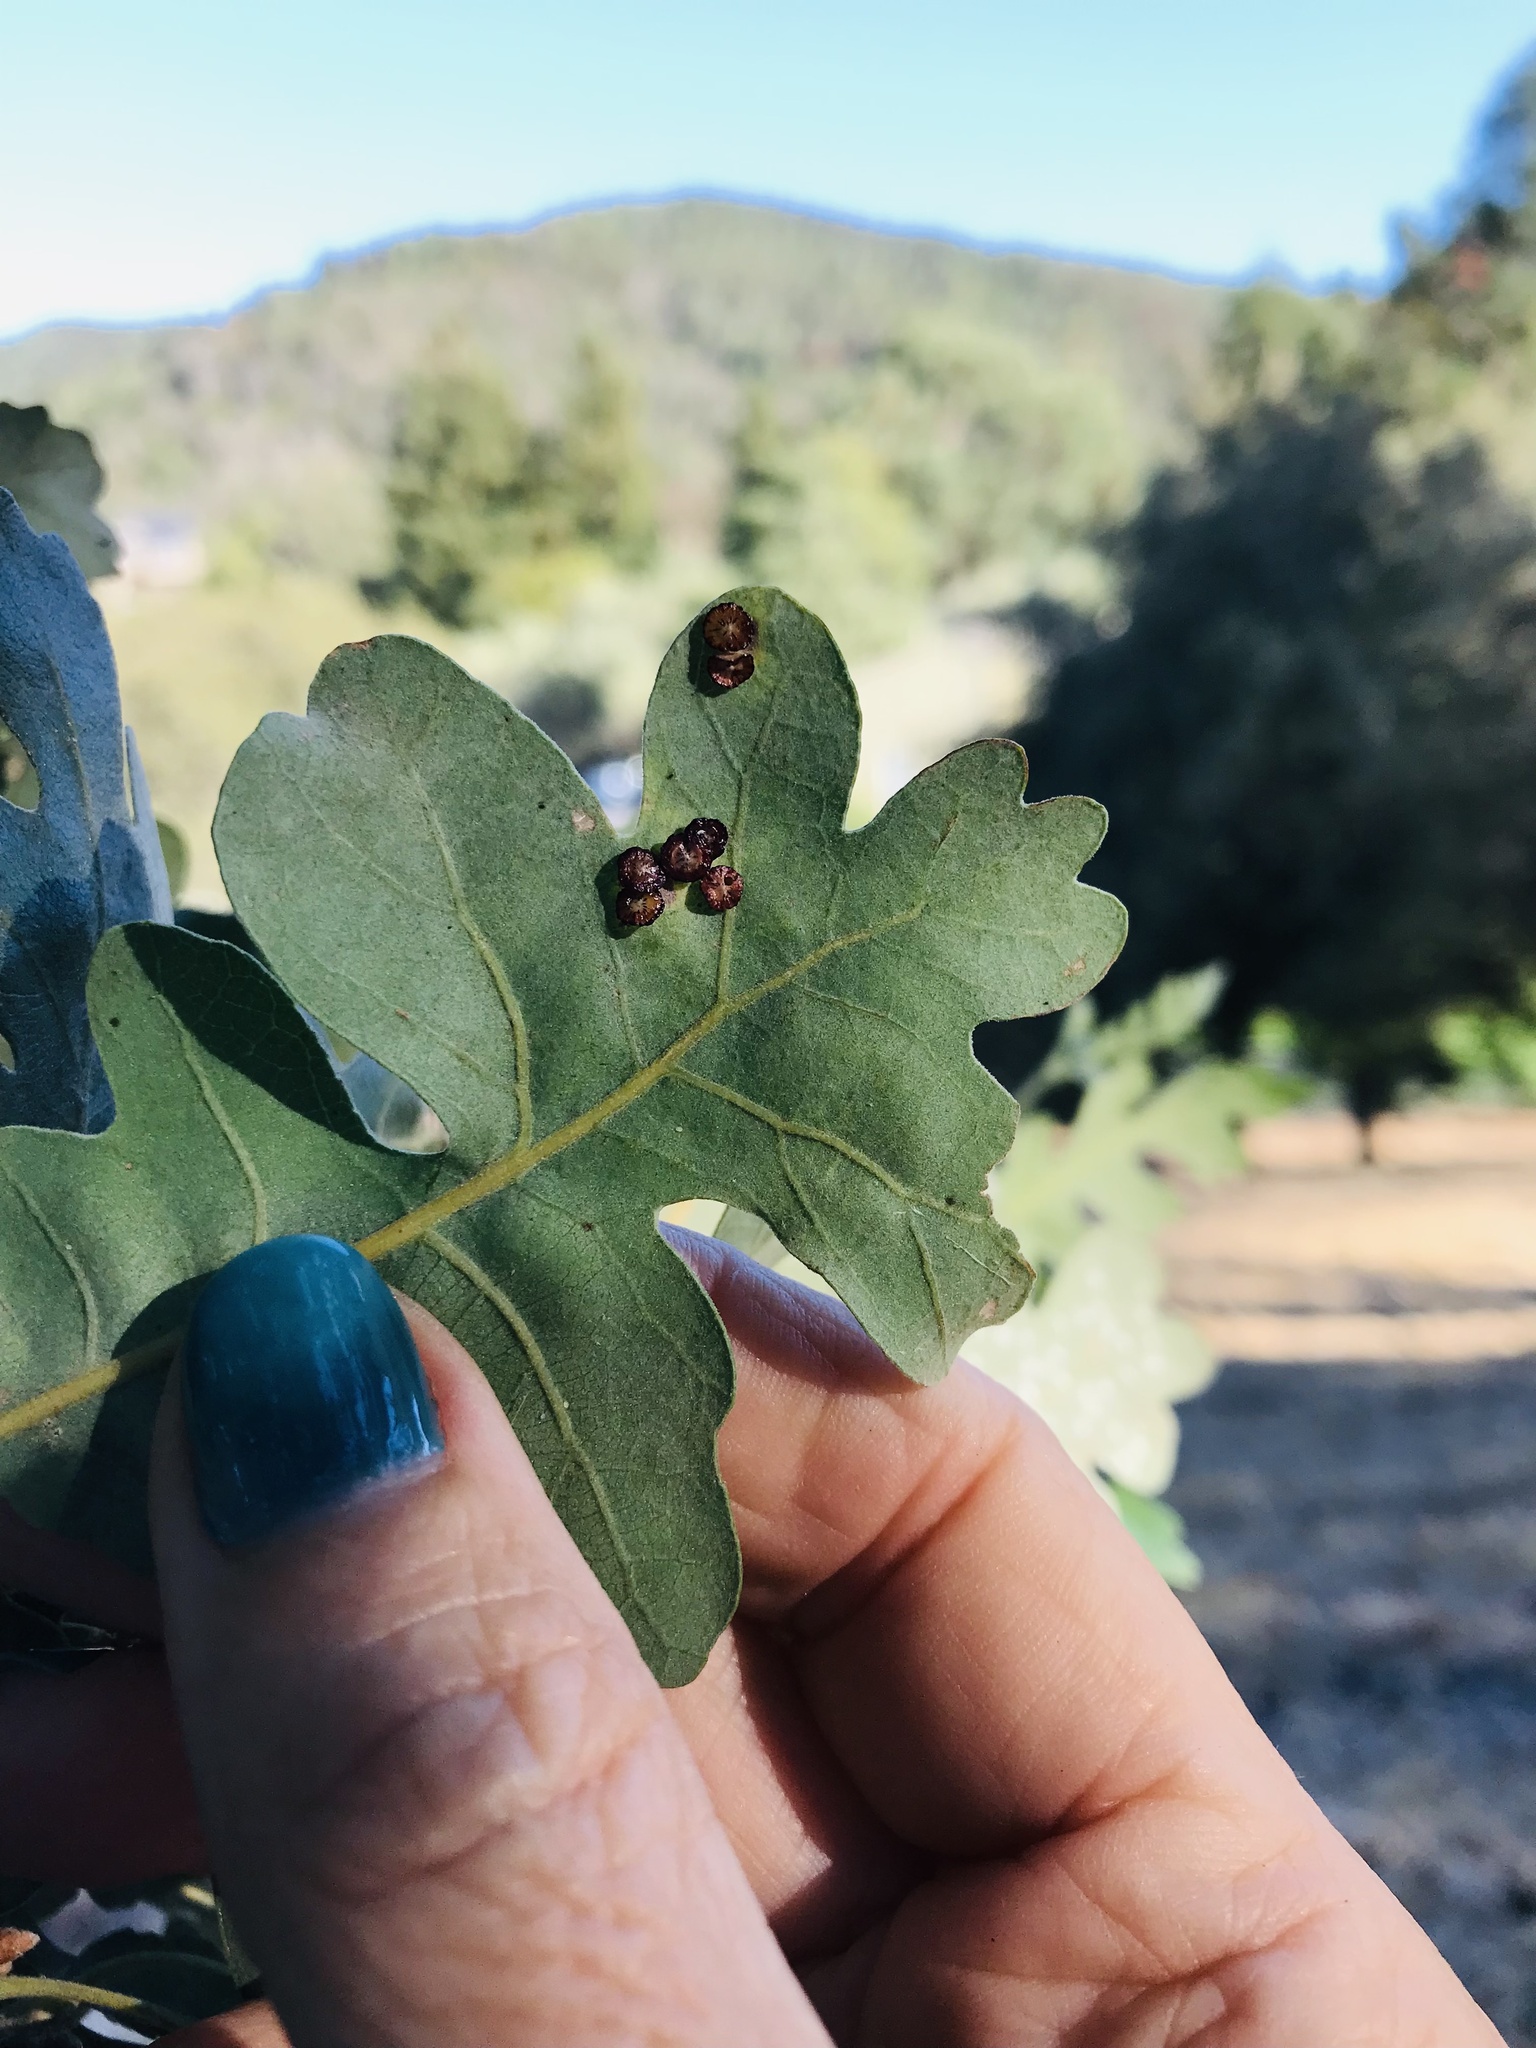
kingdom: Animalia
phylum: Arthropoda
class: Insecta
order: Hymenoptera
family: Cynipidae
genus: Andricus
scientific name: Andricus
